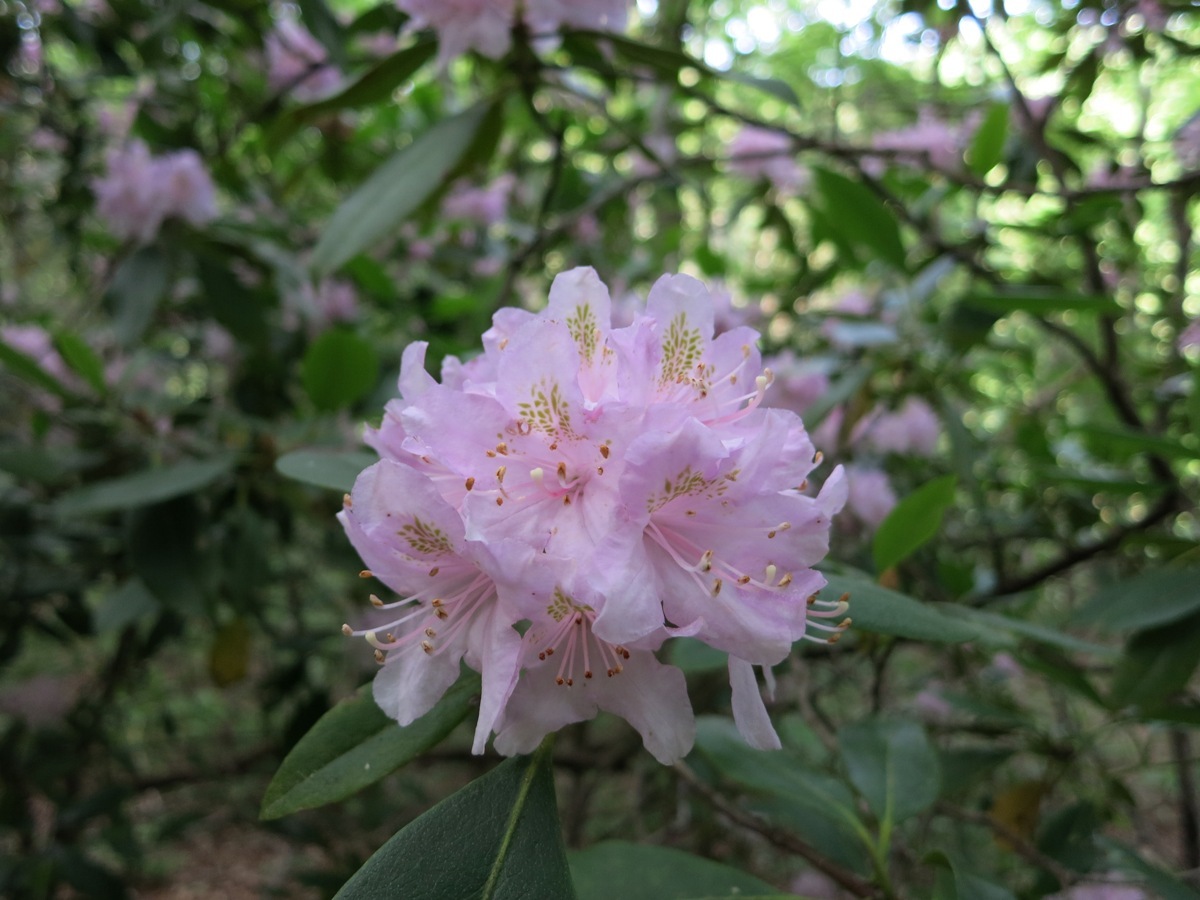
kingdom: Plantae
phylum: Tracheophyta
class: Magnoliopsida
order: Ericales
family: Ericaceae
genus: Rhododendron
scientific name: Rhododendron minus
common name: Piedmont rhododendron
